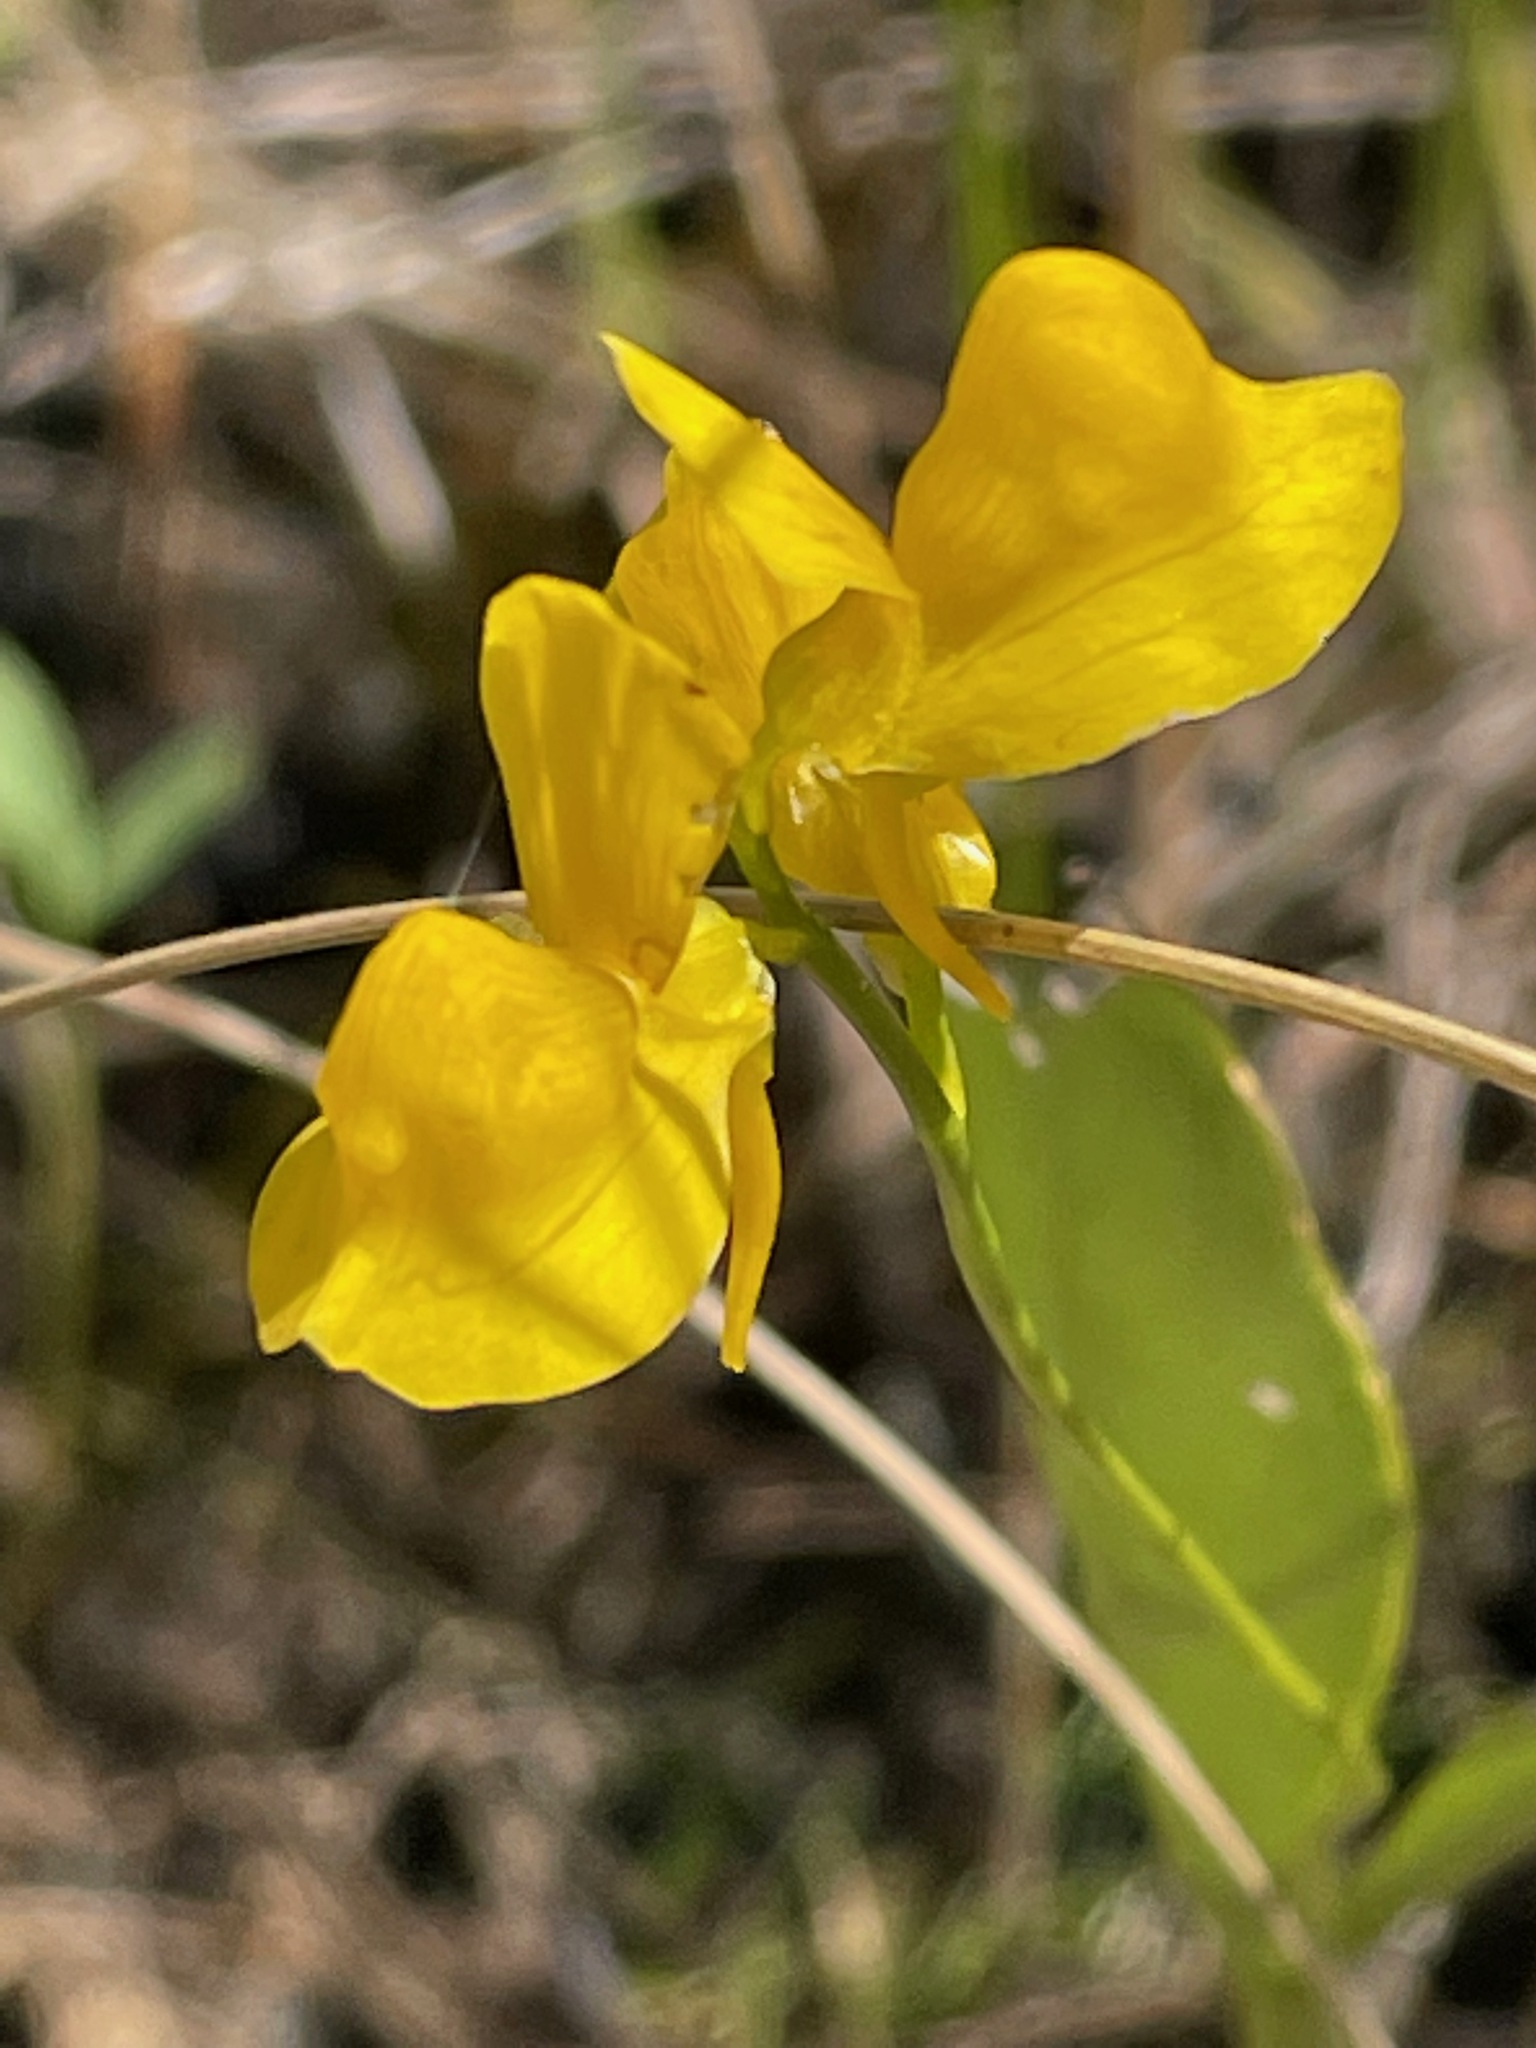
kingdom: Plantae
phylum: Tracheophyta
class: Magnoliopsida
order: Lamiales
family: Lentibulariaceae
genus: Utricularia
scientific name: Utricularia cornuta
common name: Horned bladderwort
